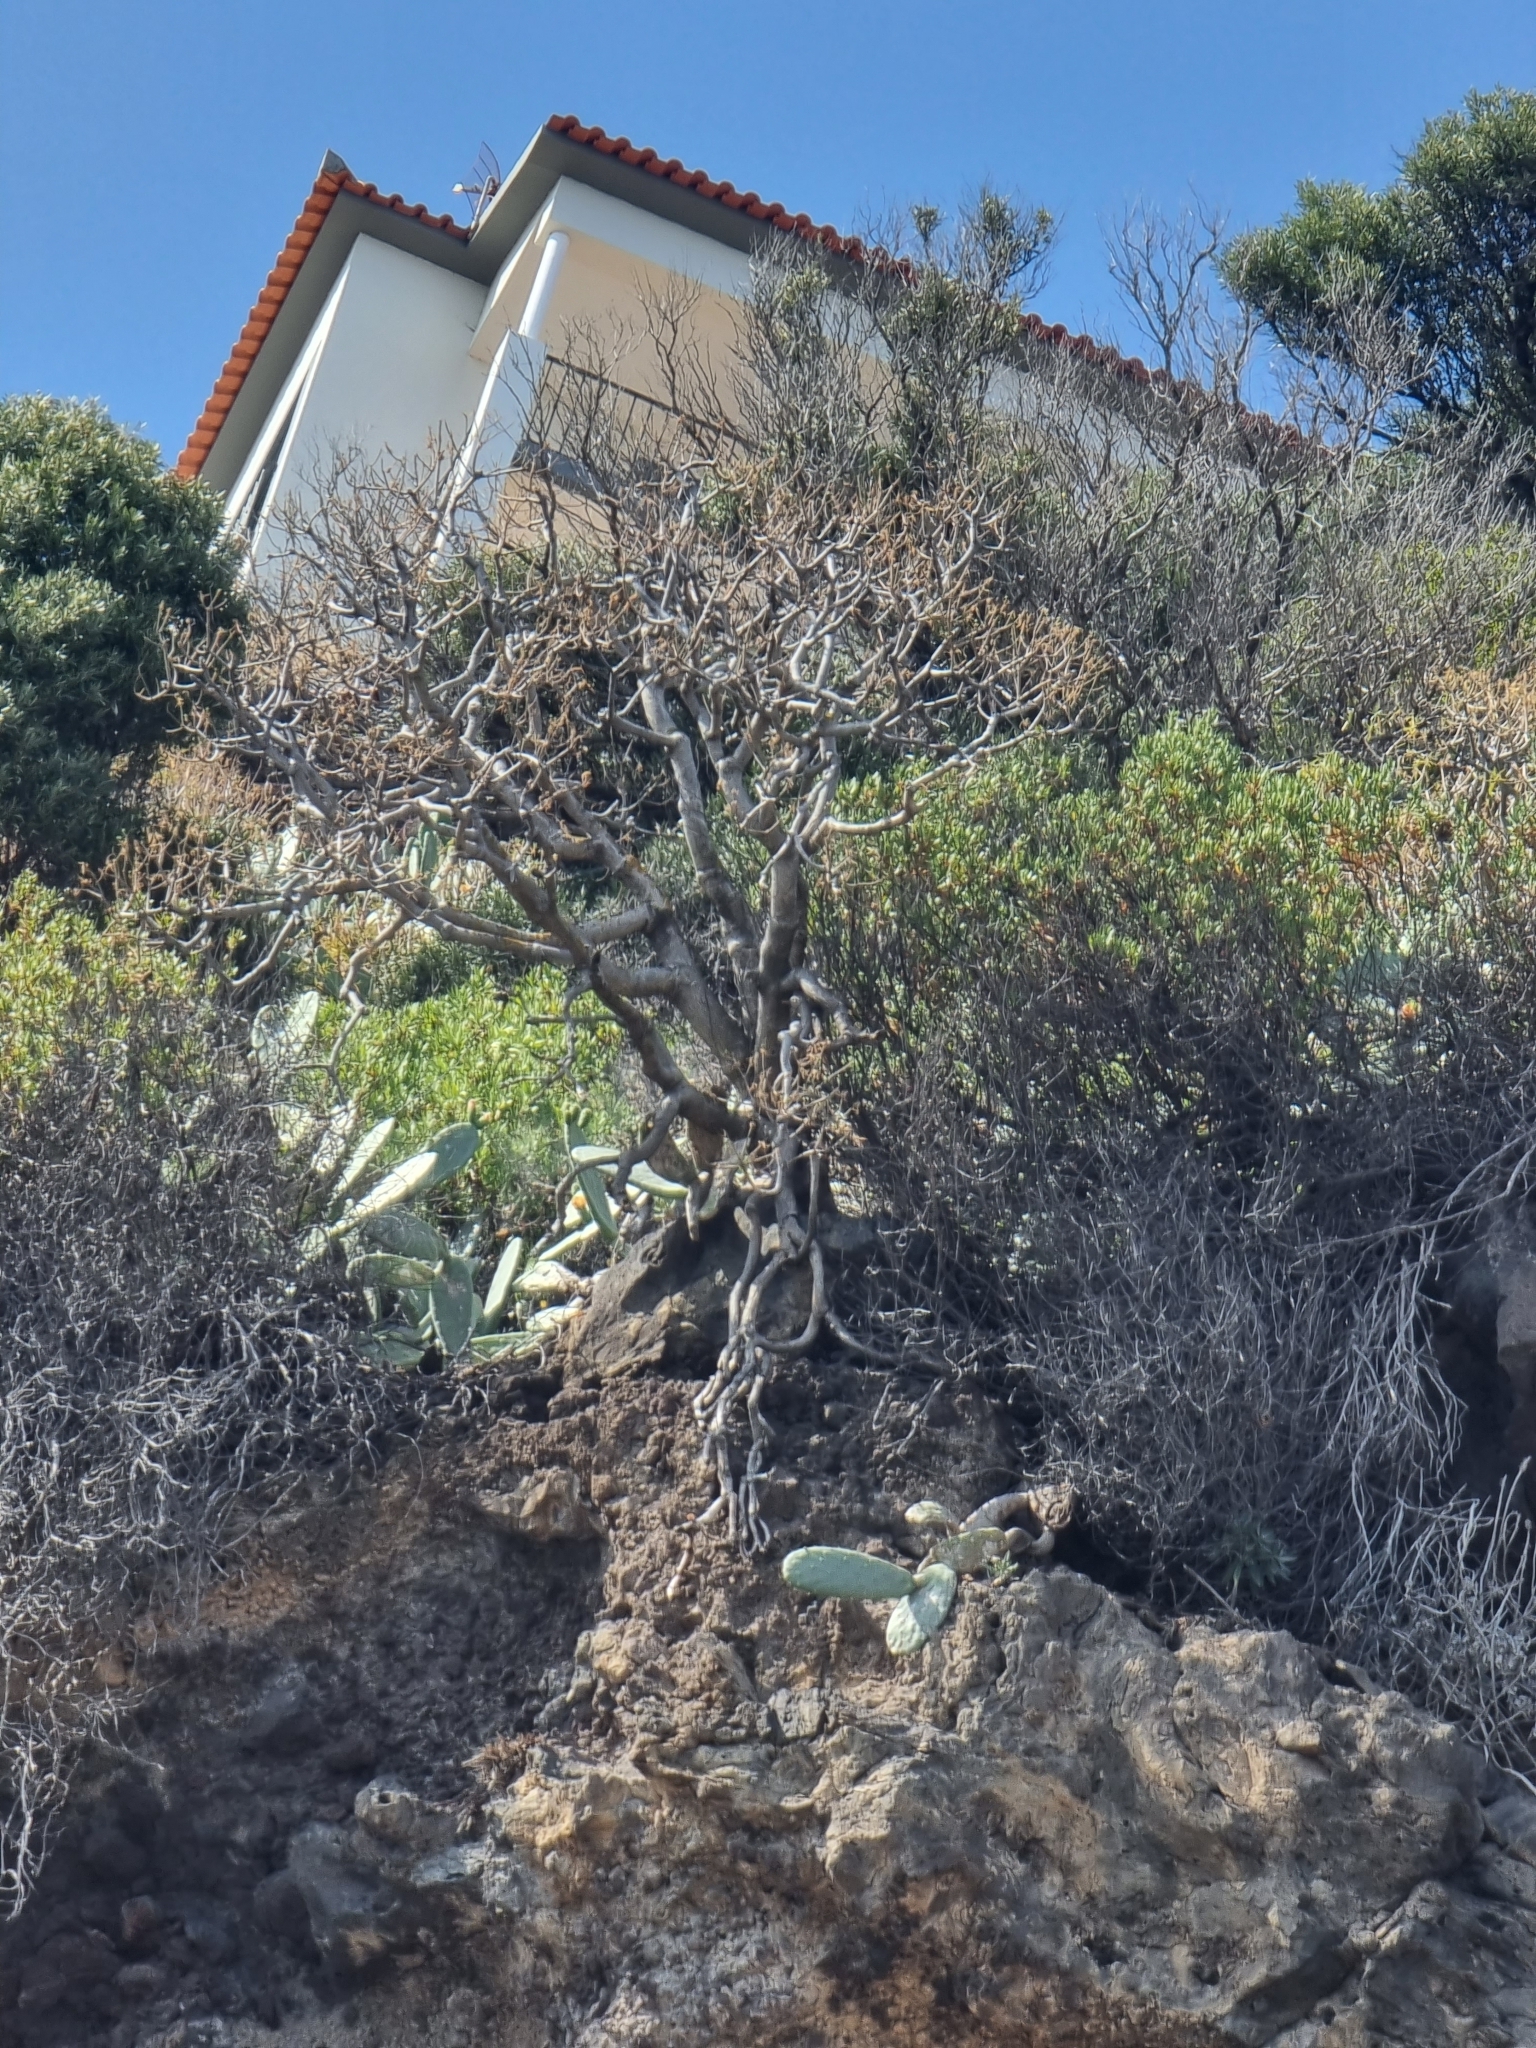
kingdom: Plantae
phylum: Tracheophyta
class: Magnoliopsida
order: Malpighiales
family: Euphorbiaceae
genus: Euphorbia
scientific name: Euphorbia piscatoria
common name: Fish-stunning spurge
